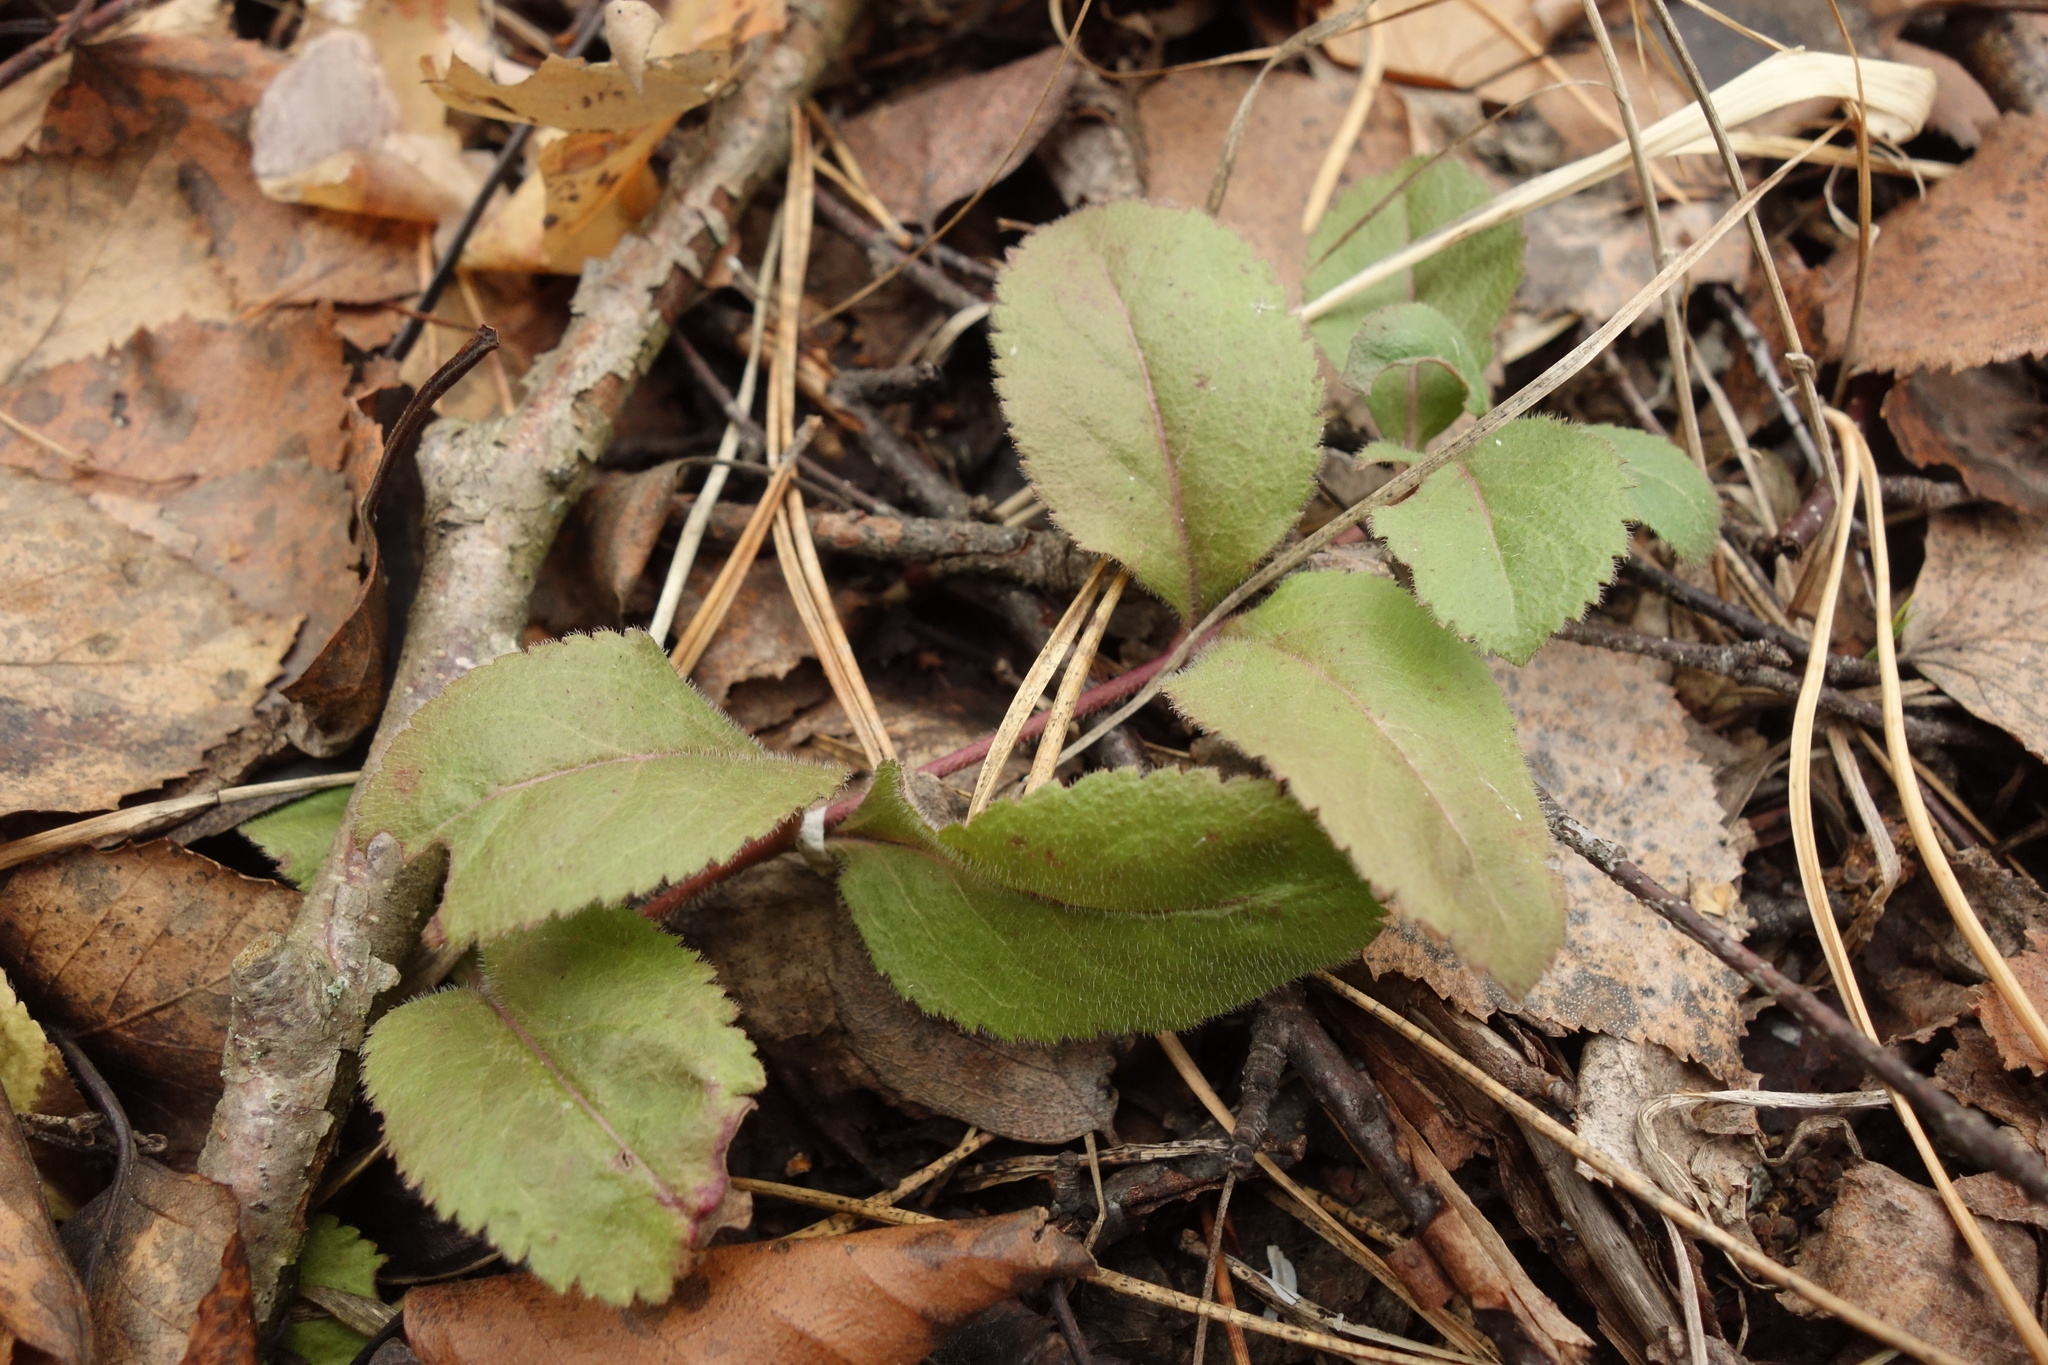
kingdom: Plantae
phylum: Tracheophyta
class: Magnoliopsida
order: Lamiales
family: Plantaginaceae
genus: Veronica
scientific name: Veronica officinalis
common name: Common speedwell
